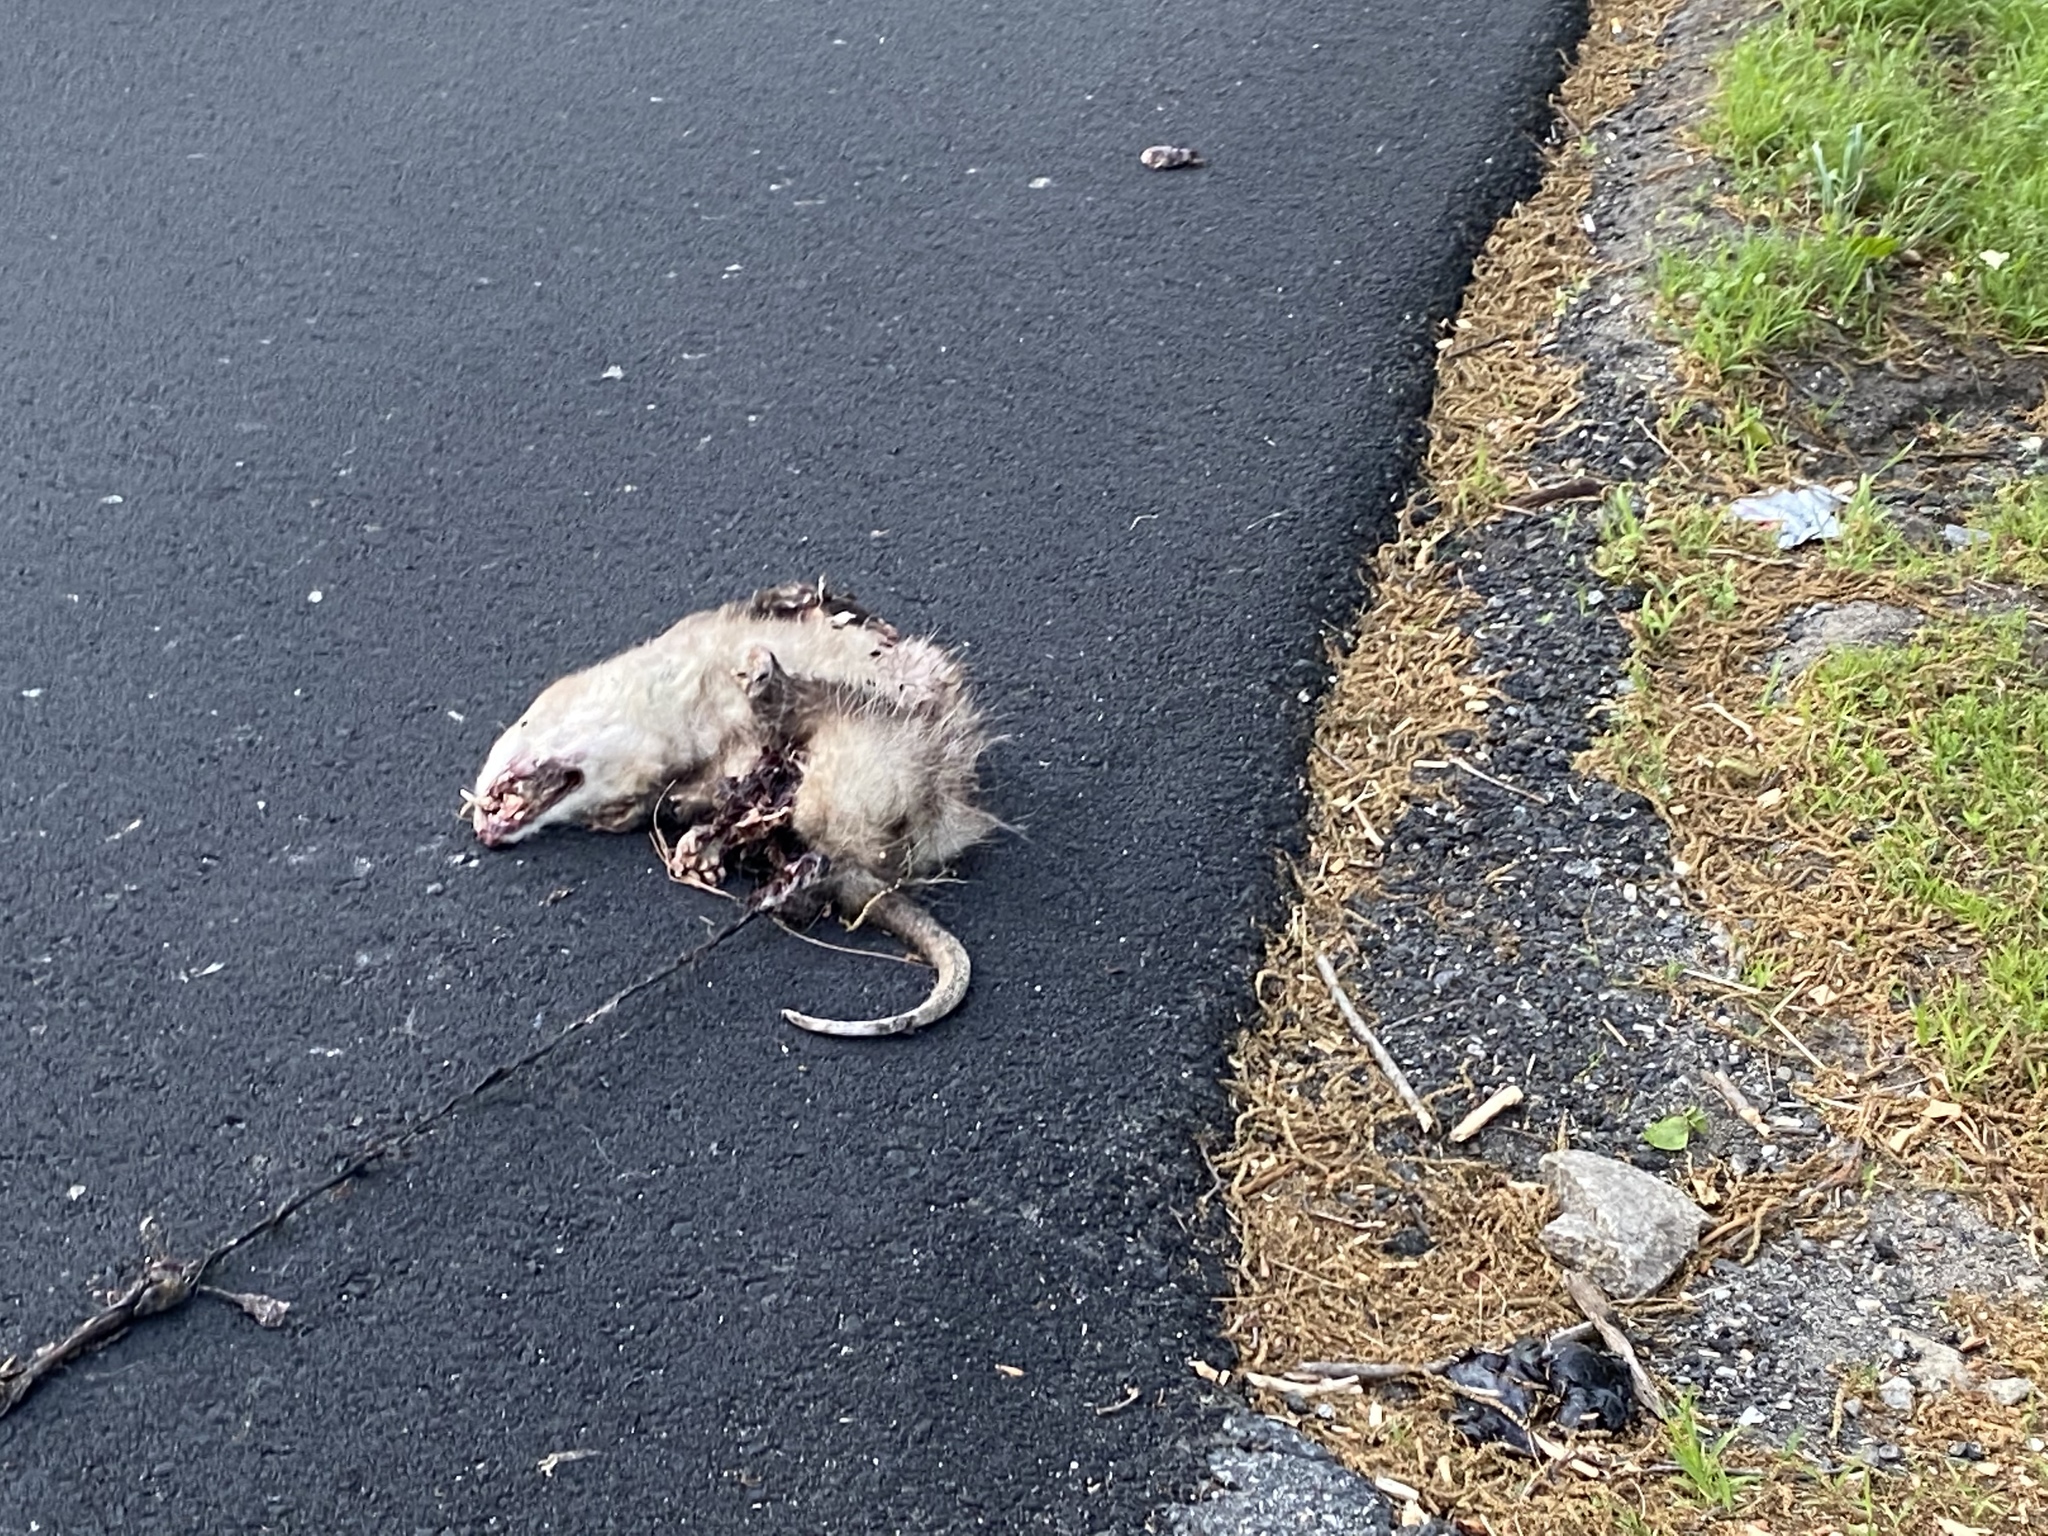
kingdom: Animalia
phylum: Chordata
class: Mammalia
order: Didelphimorphia
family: Didelphidae
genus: Didelphis
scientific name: Didelphis virginiana
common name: Virginia opossum
